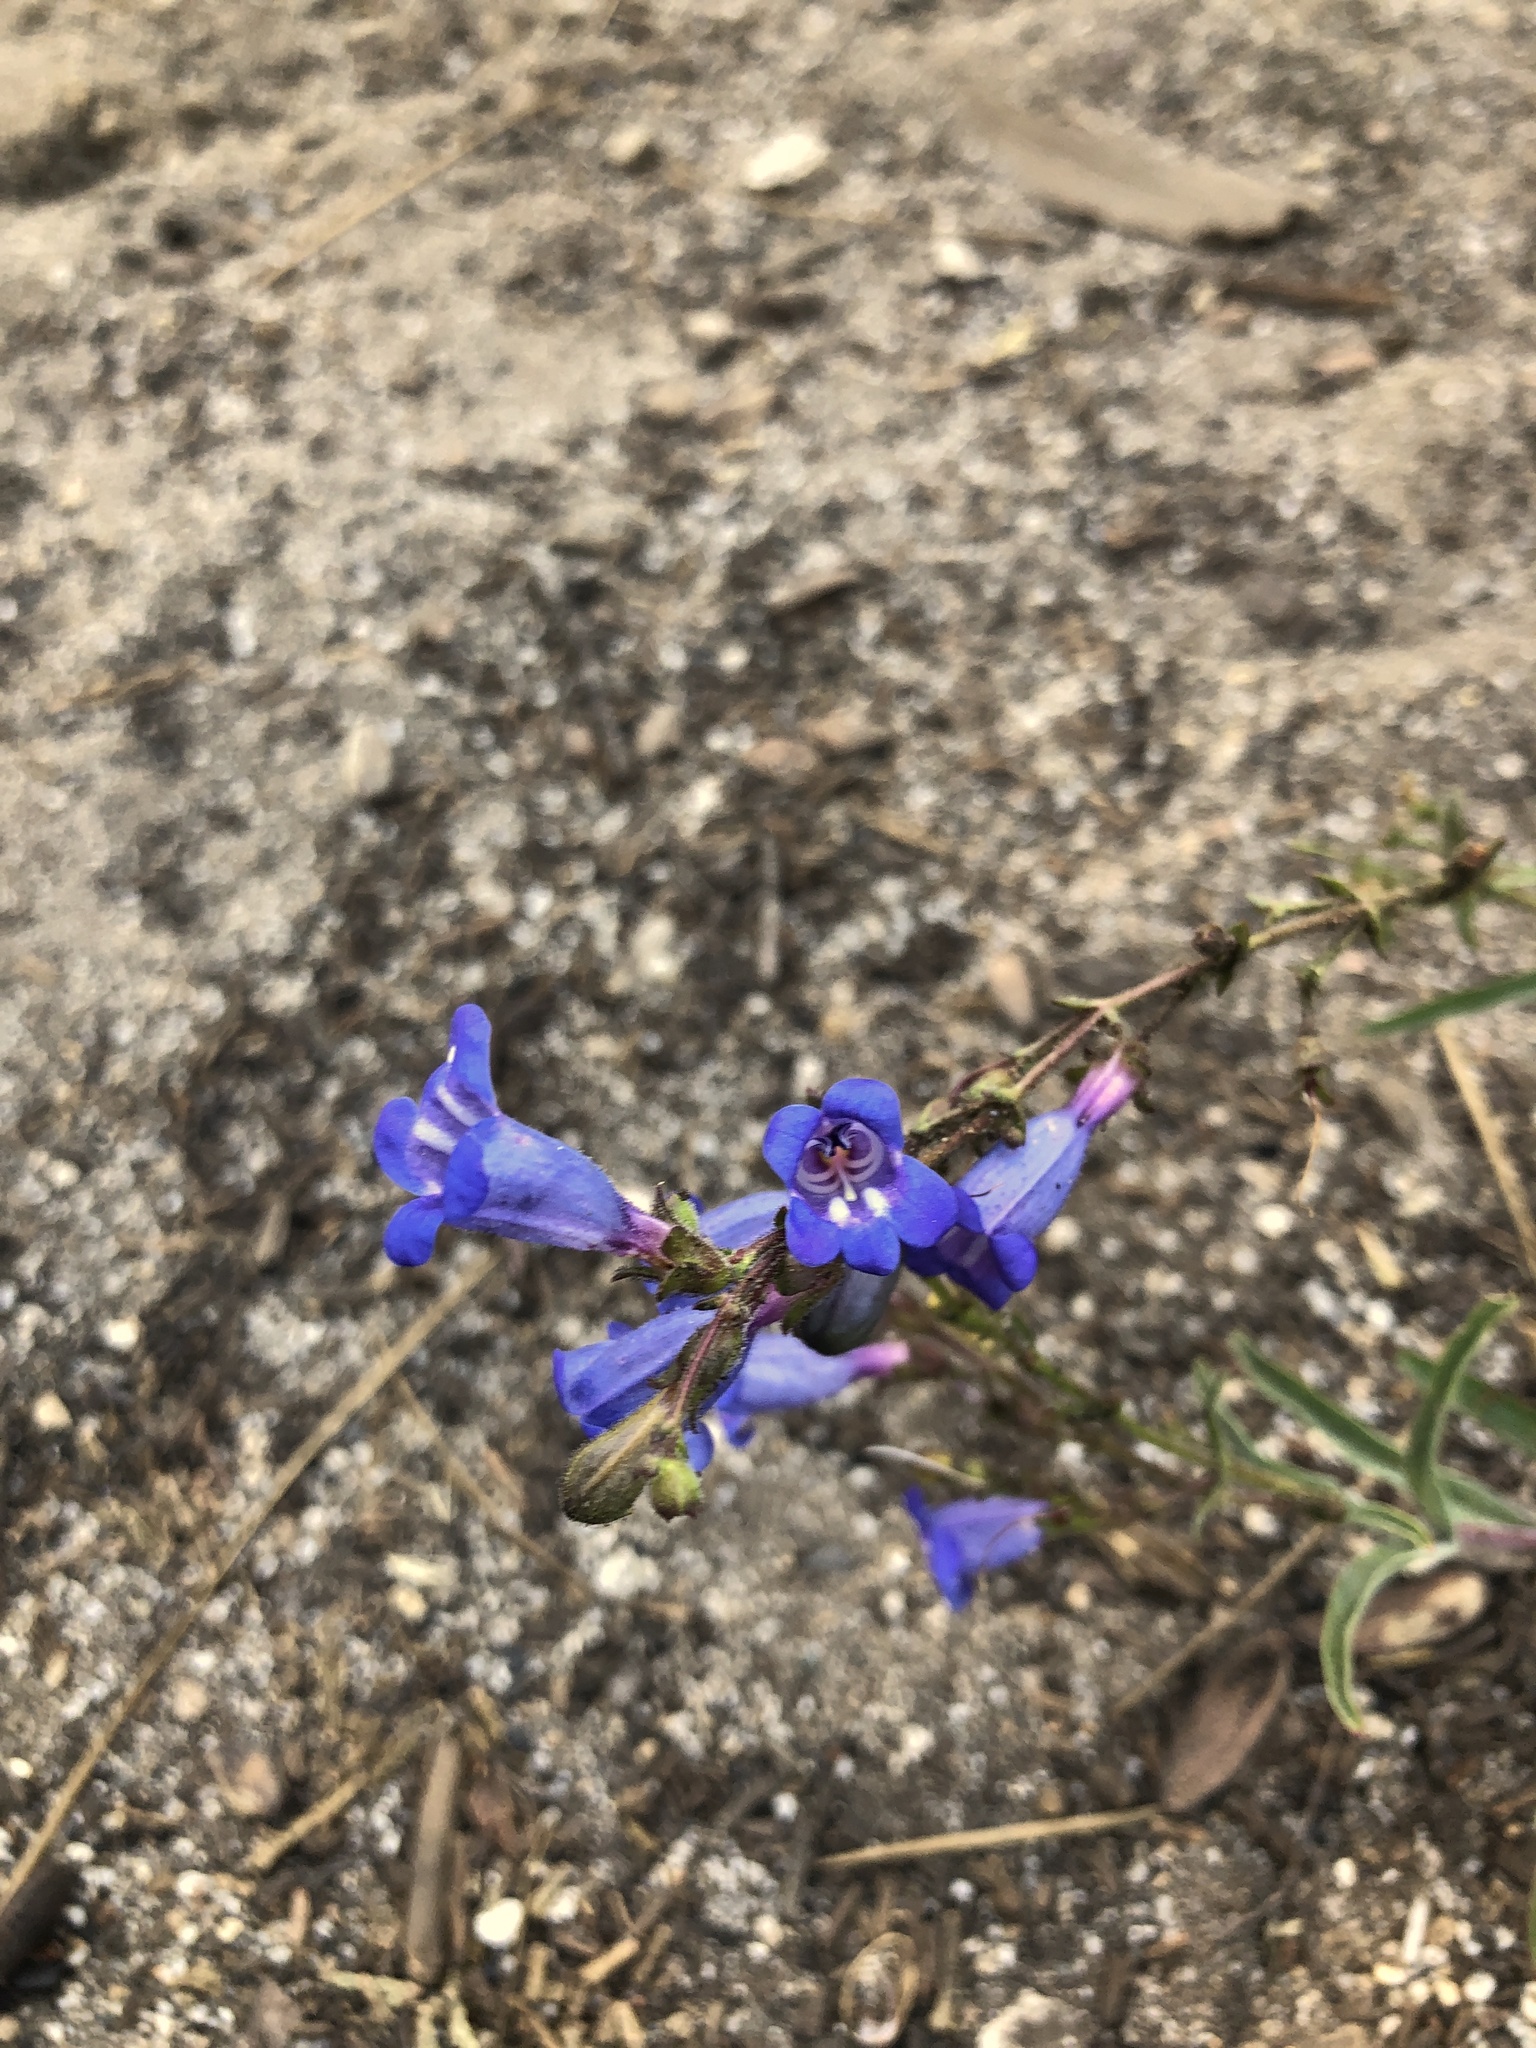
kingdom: Plantae
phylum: Tracheophyta
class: Magnoliopsida
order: Lamiales
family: Plantaginaceae
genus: Penstemon
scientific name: Penstemon laetus
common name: Gay penstemon
